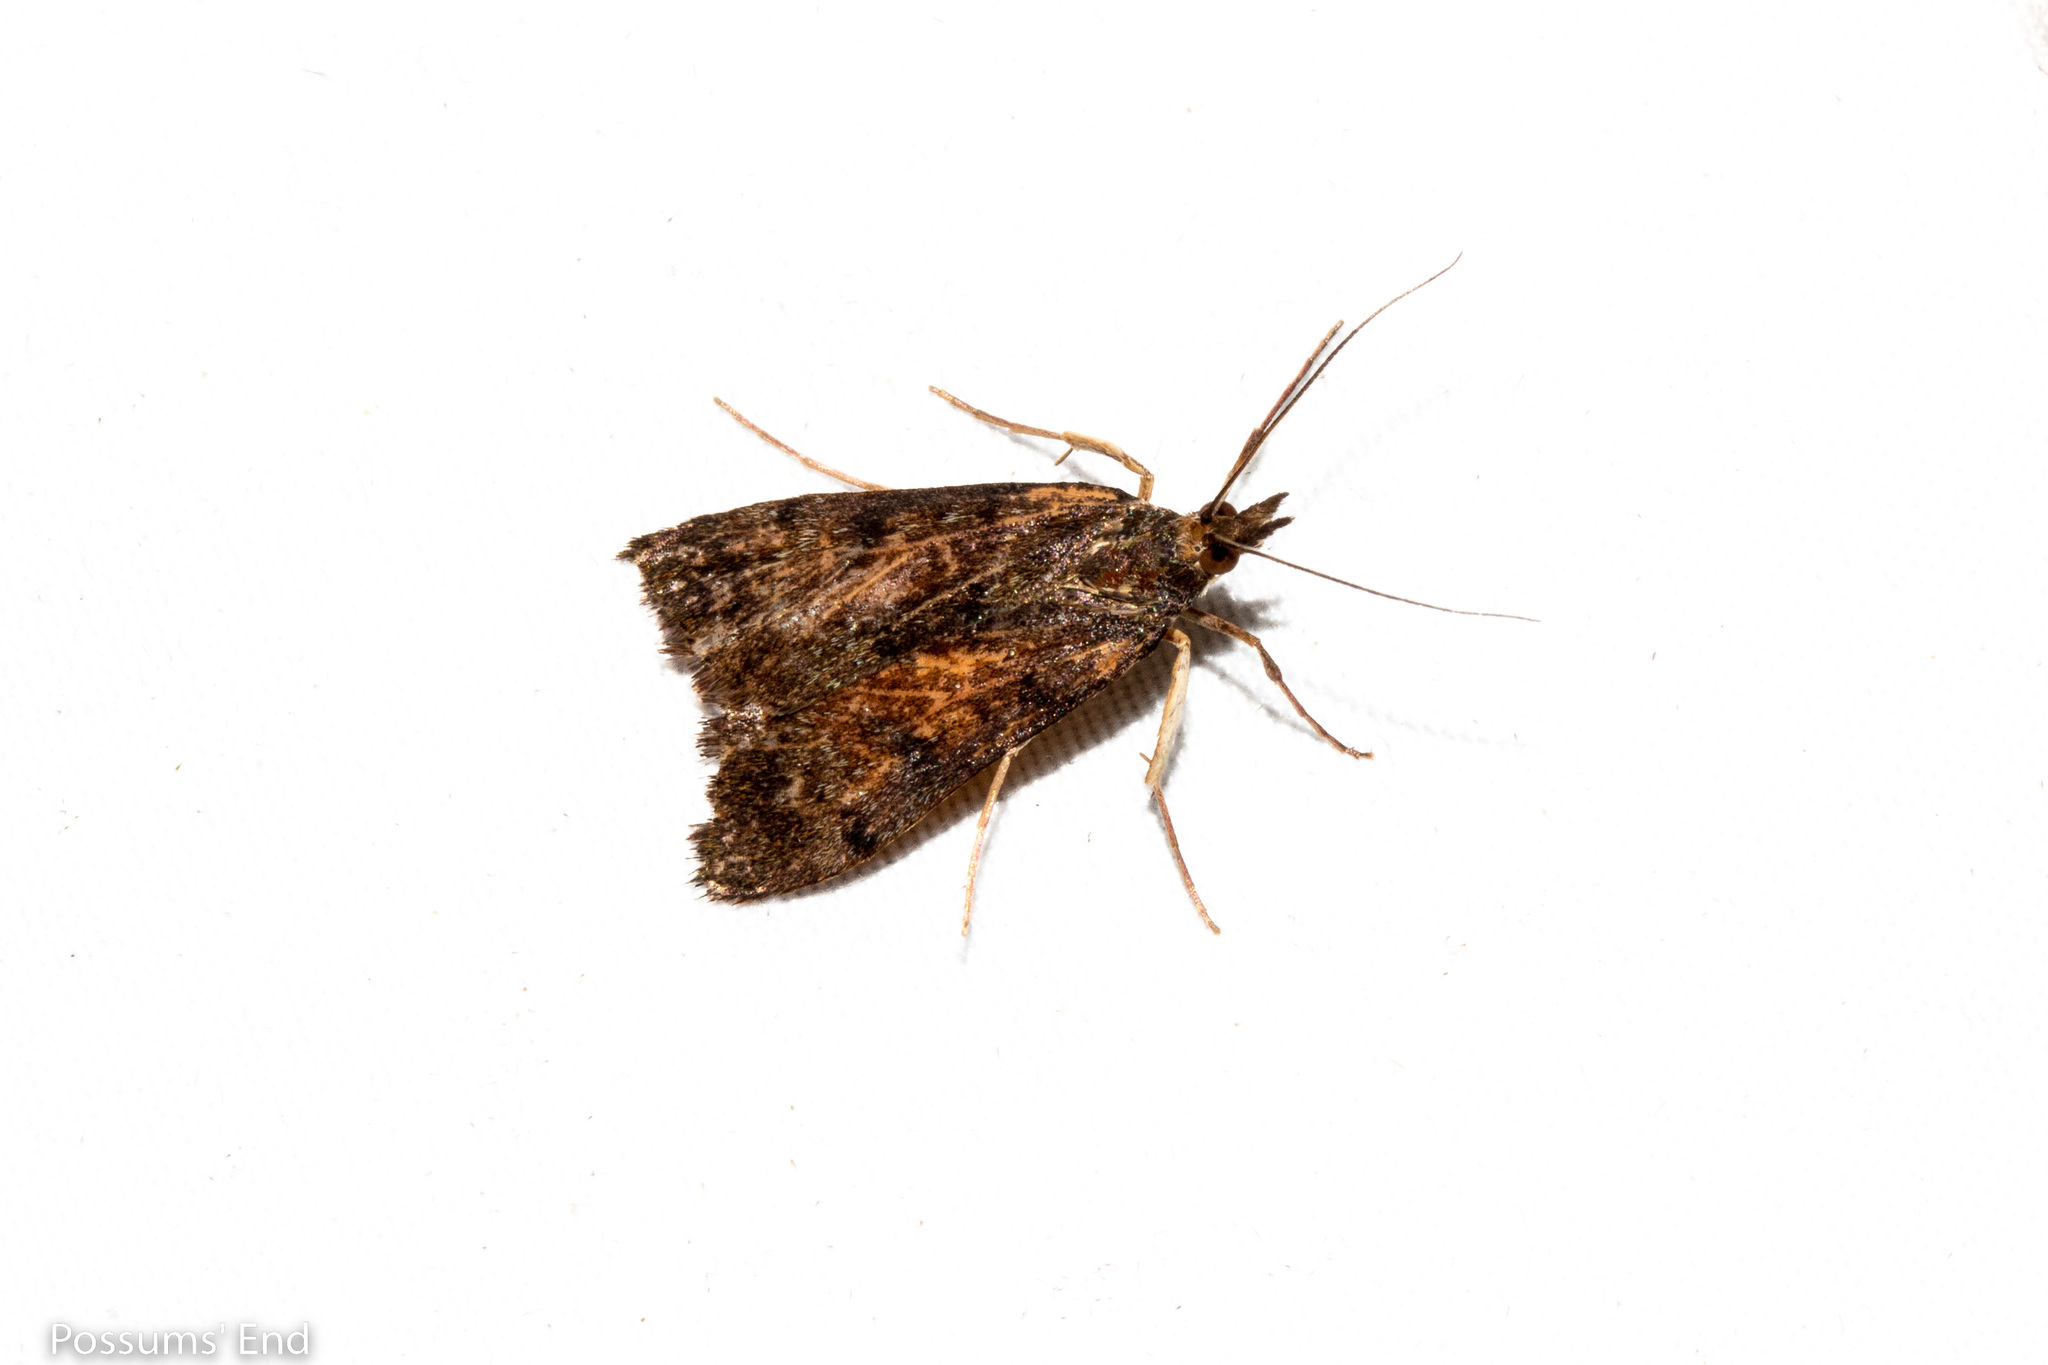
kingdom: Animalia
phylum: Arthropoda
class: Insecta
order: Lepidoptera
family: Crambidae
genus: Achyra
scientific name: Achyra affinitalis
